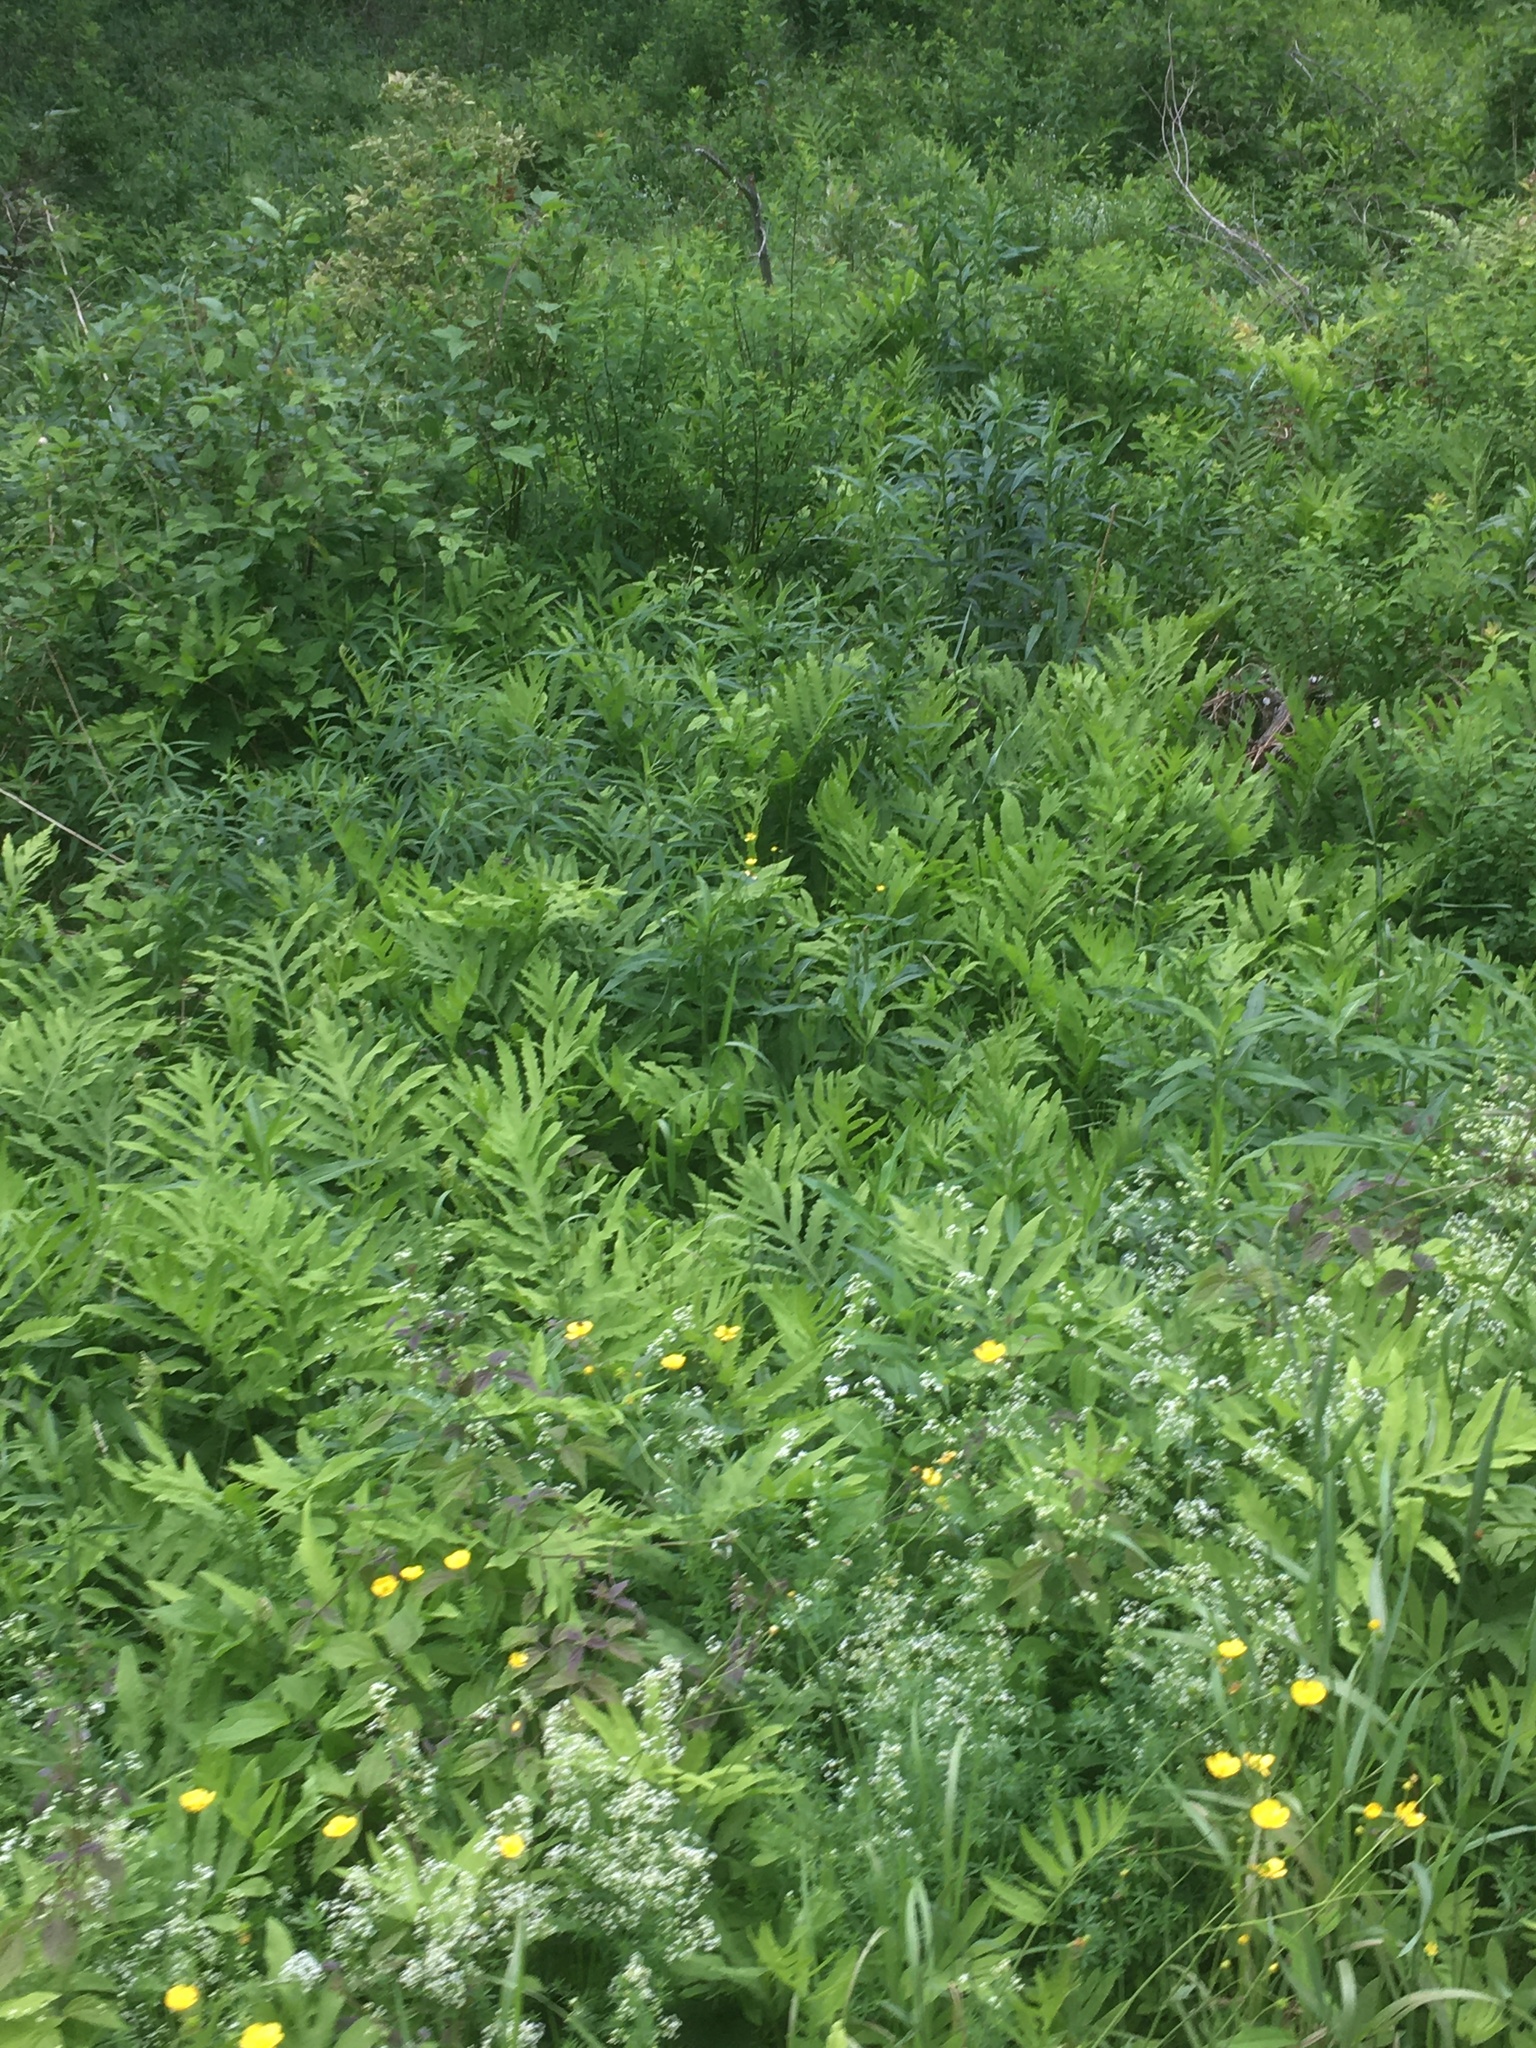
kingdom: Plantae
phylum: Tracheophyta
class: Polypodiopsida
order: Polypodiales
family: Onocleaceae
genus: Onoclea
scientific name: Onoclea sensibilis
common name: Sensitive fern
